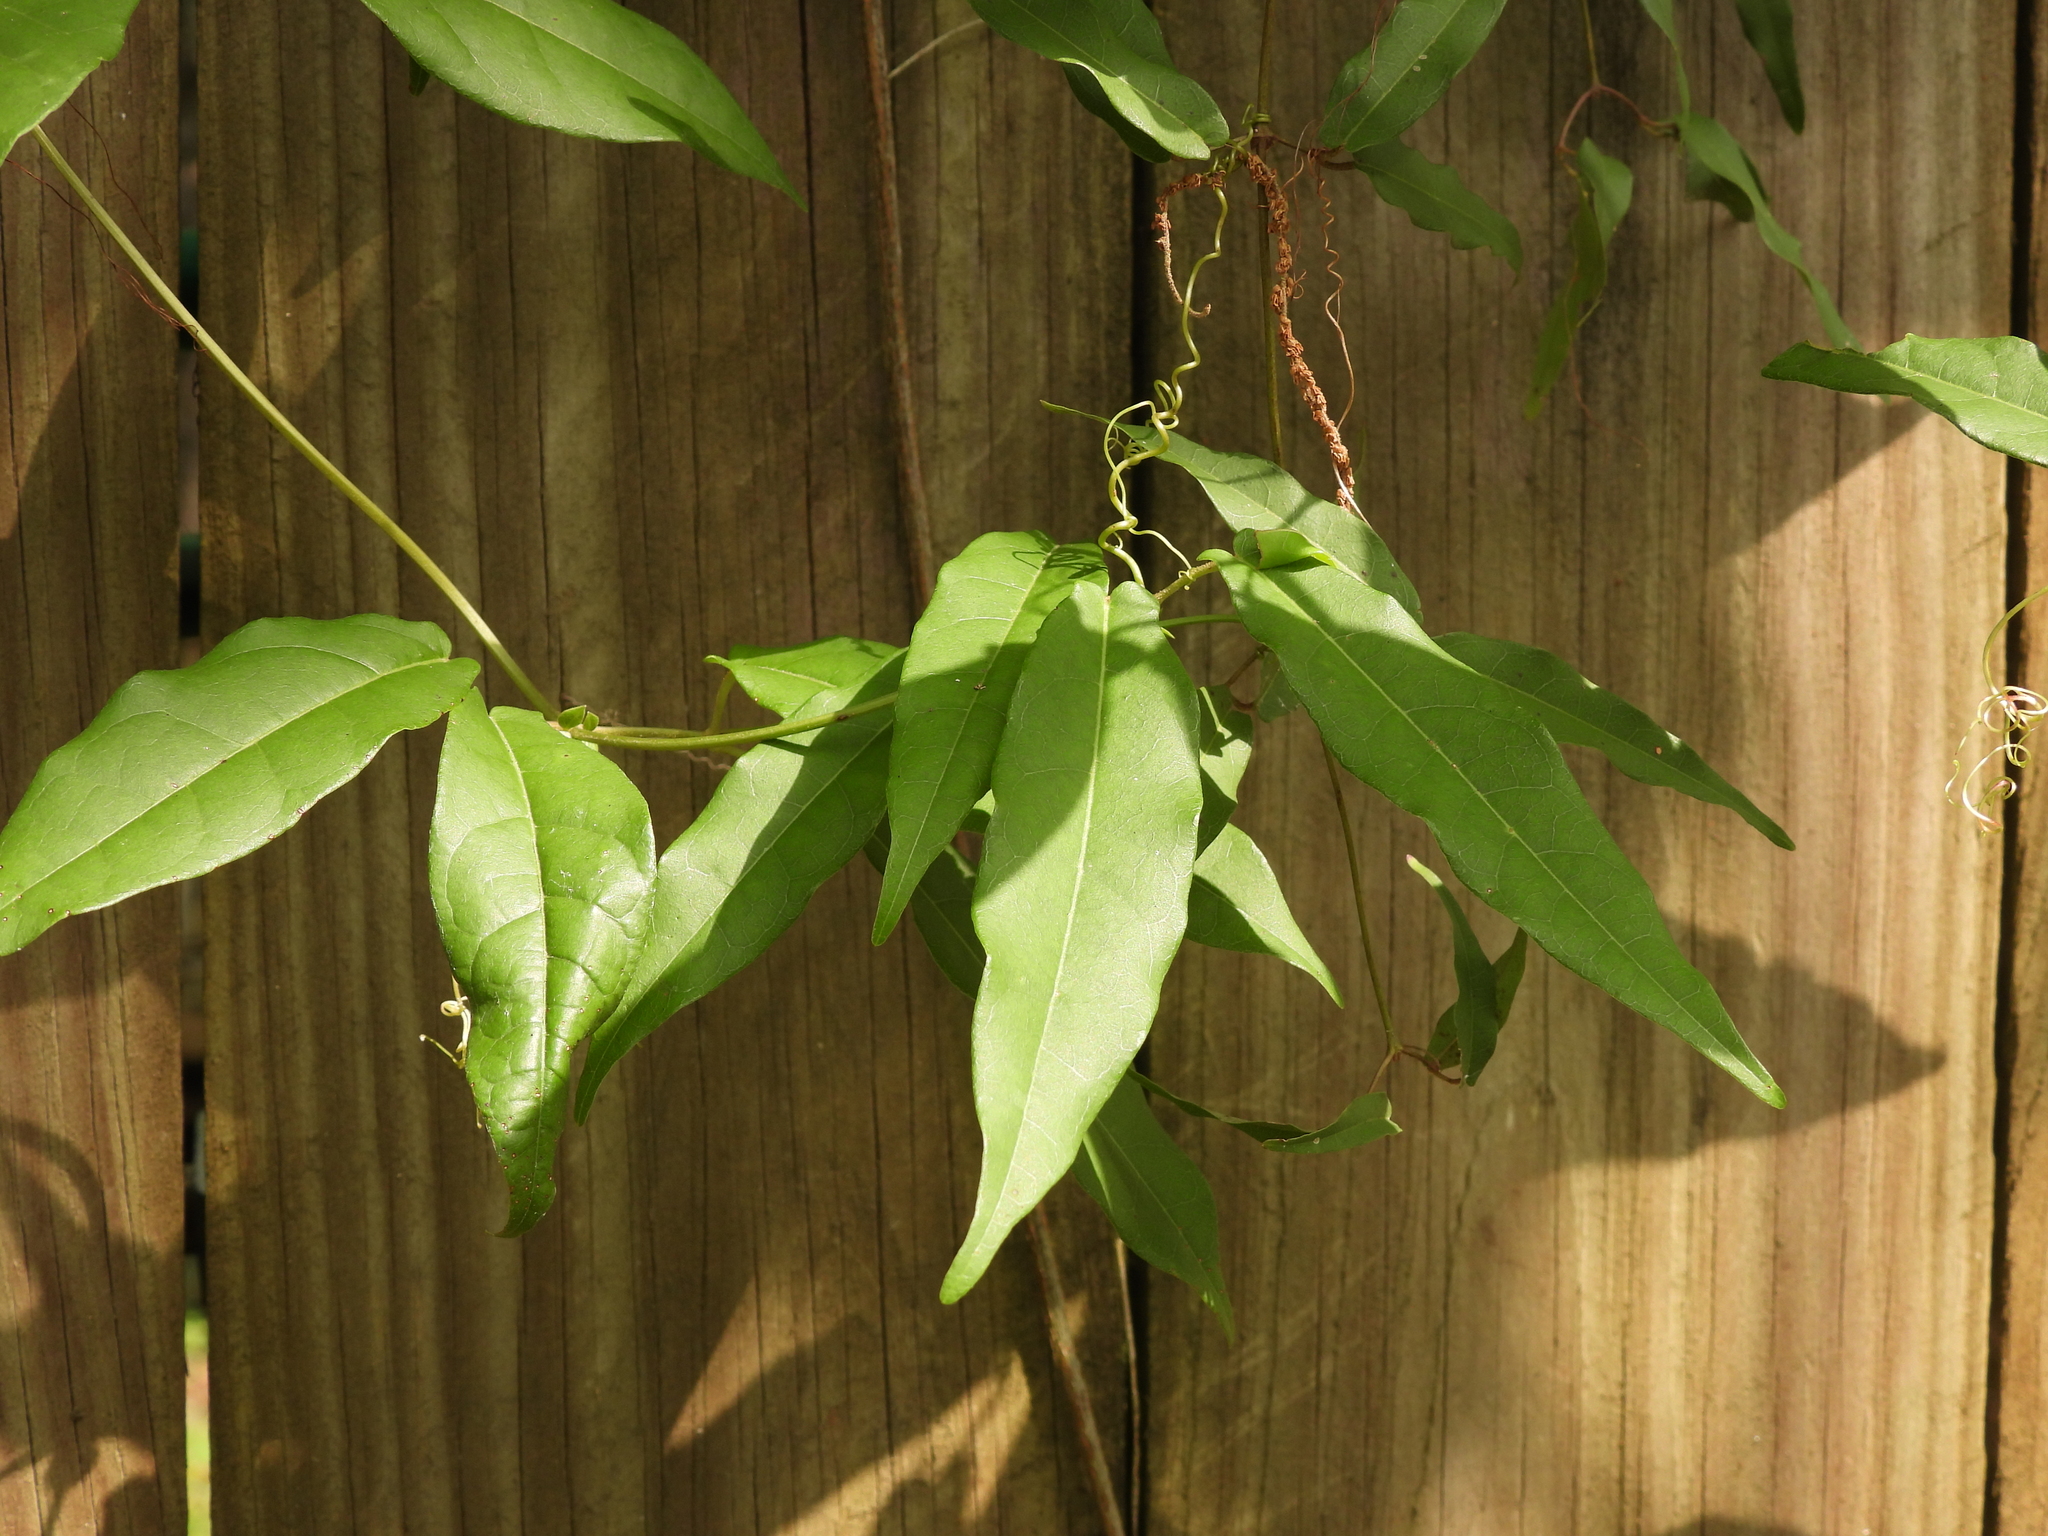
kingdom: Plantae
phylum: Tracheophyta
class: Magnoliopsida
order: Lamiales
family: Bignoniaceae
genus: Bignonia
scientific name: Bignonia capreolata
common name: Crossvine
